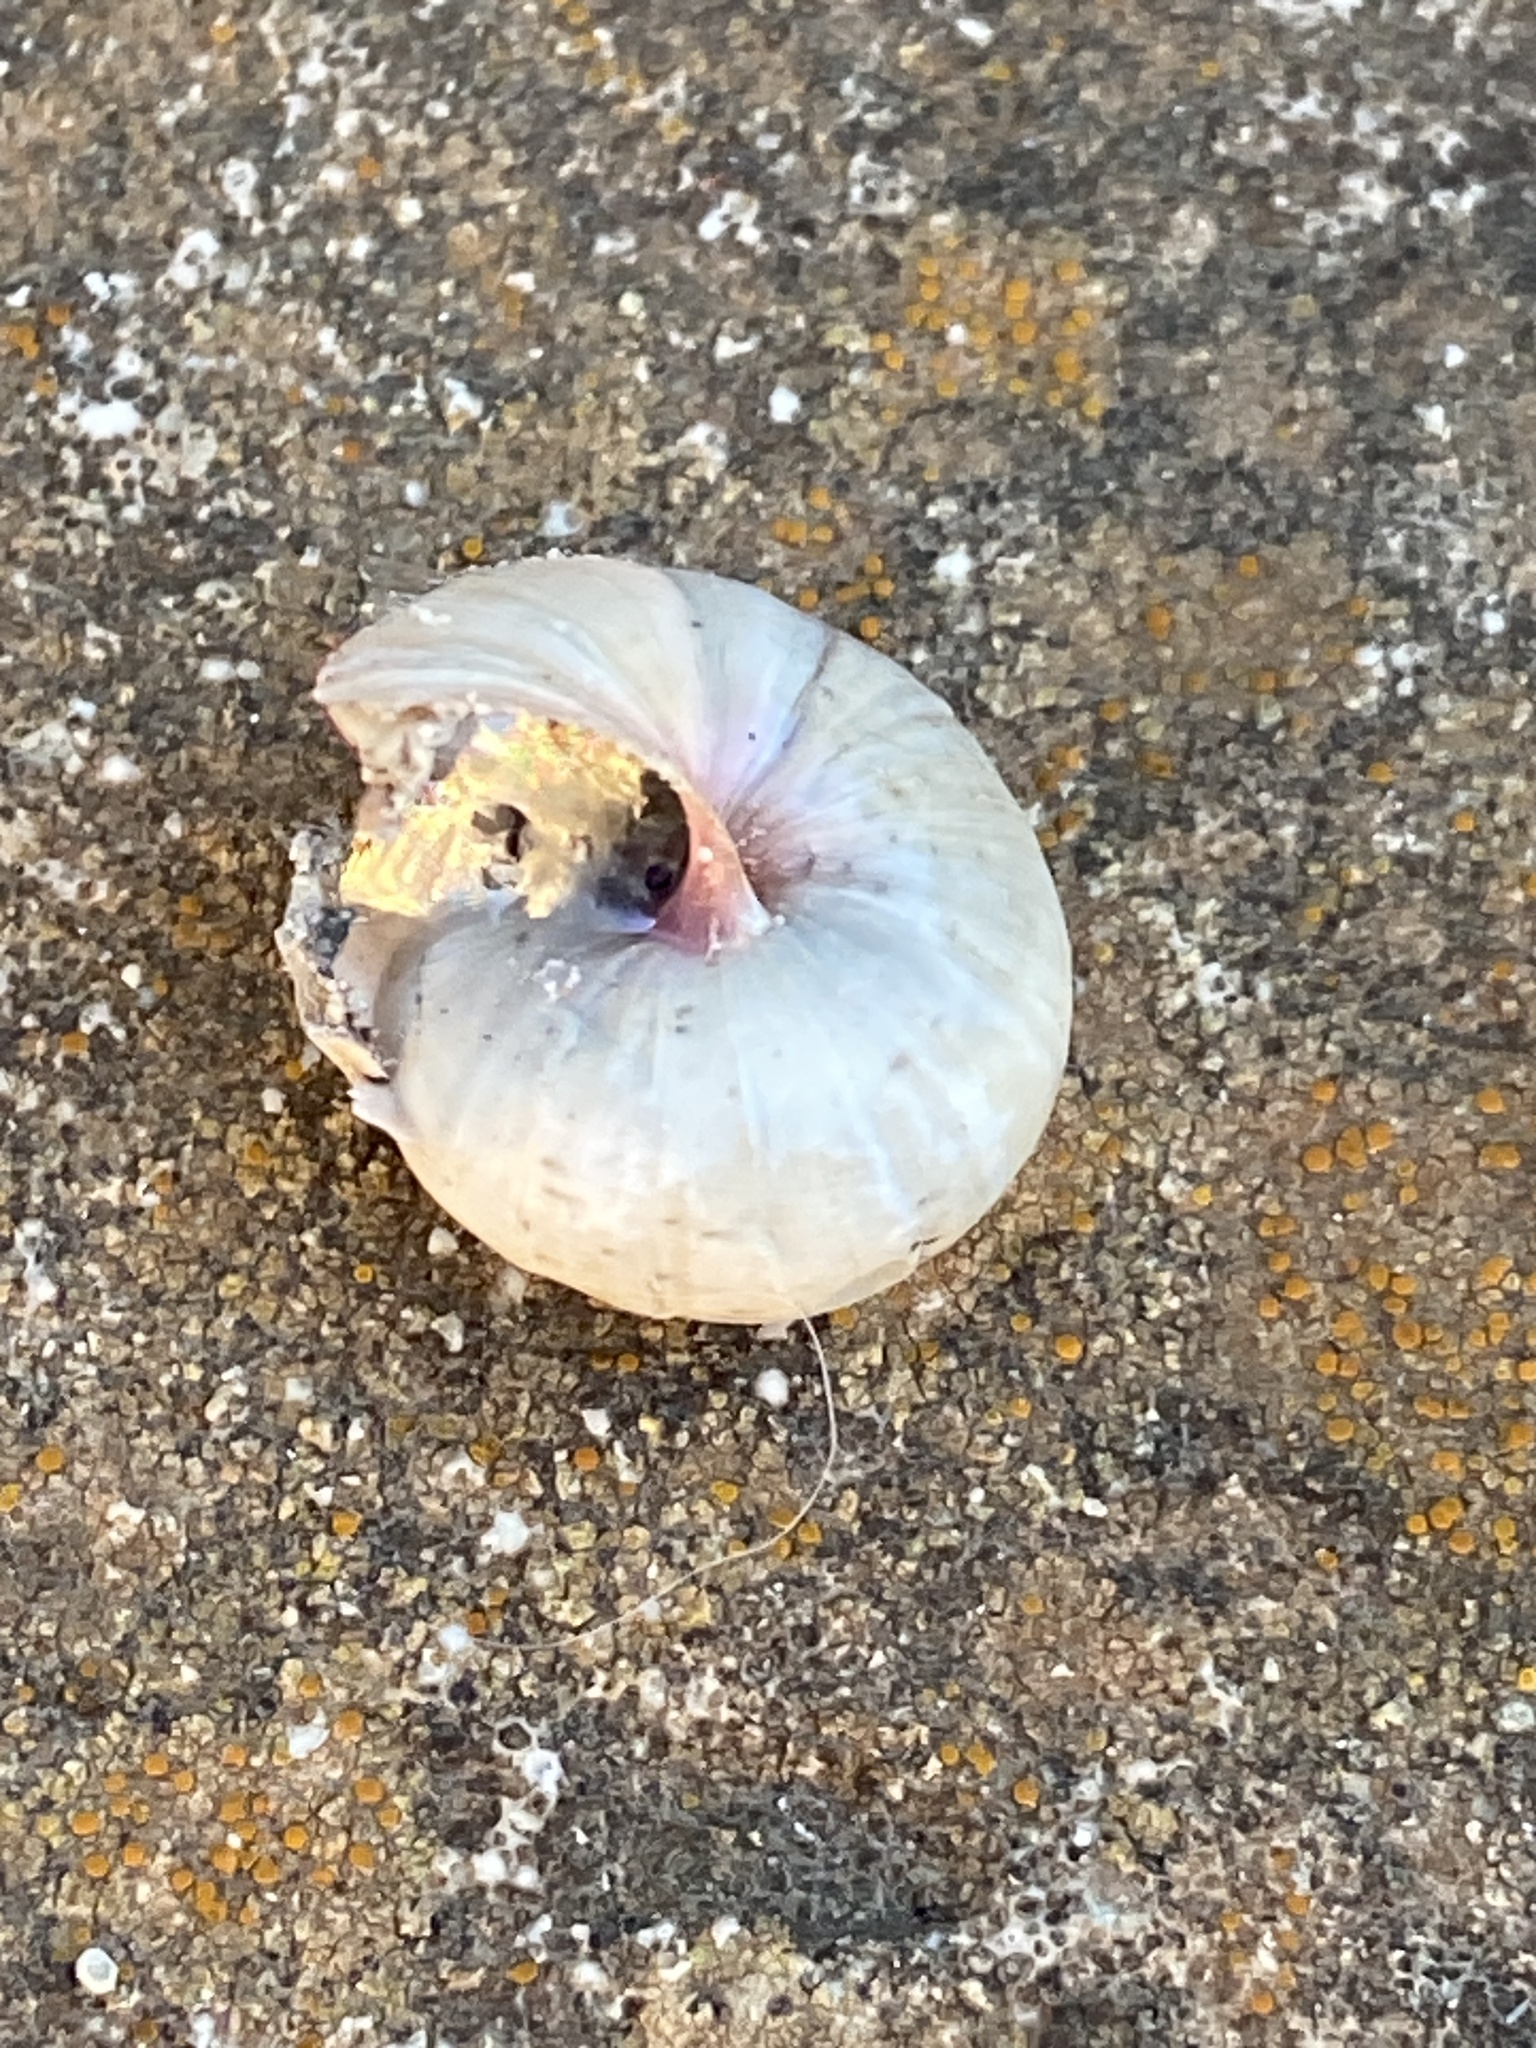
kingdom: Animalia
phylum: Mollusca
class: Gastropoda
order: Stylommatophora
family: Helicidae
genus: Theba
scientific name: Theba pisana
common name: White snail
